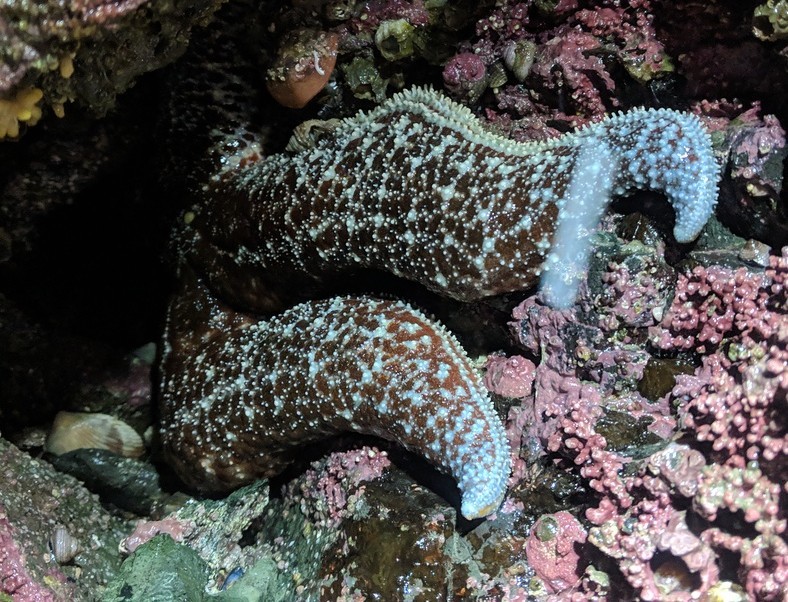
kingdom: Animalia
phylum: Echinodermata
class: Asteroidea
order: Forcipulatida
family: Asteriidae
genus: Evasterias
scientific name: Evasterias troschelii
